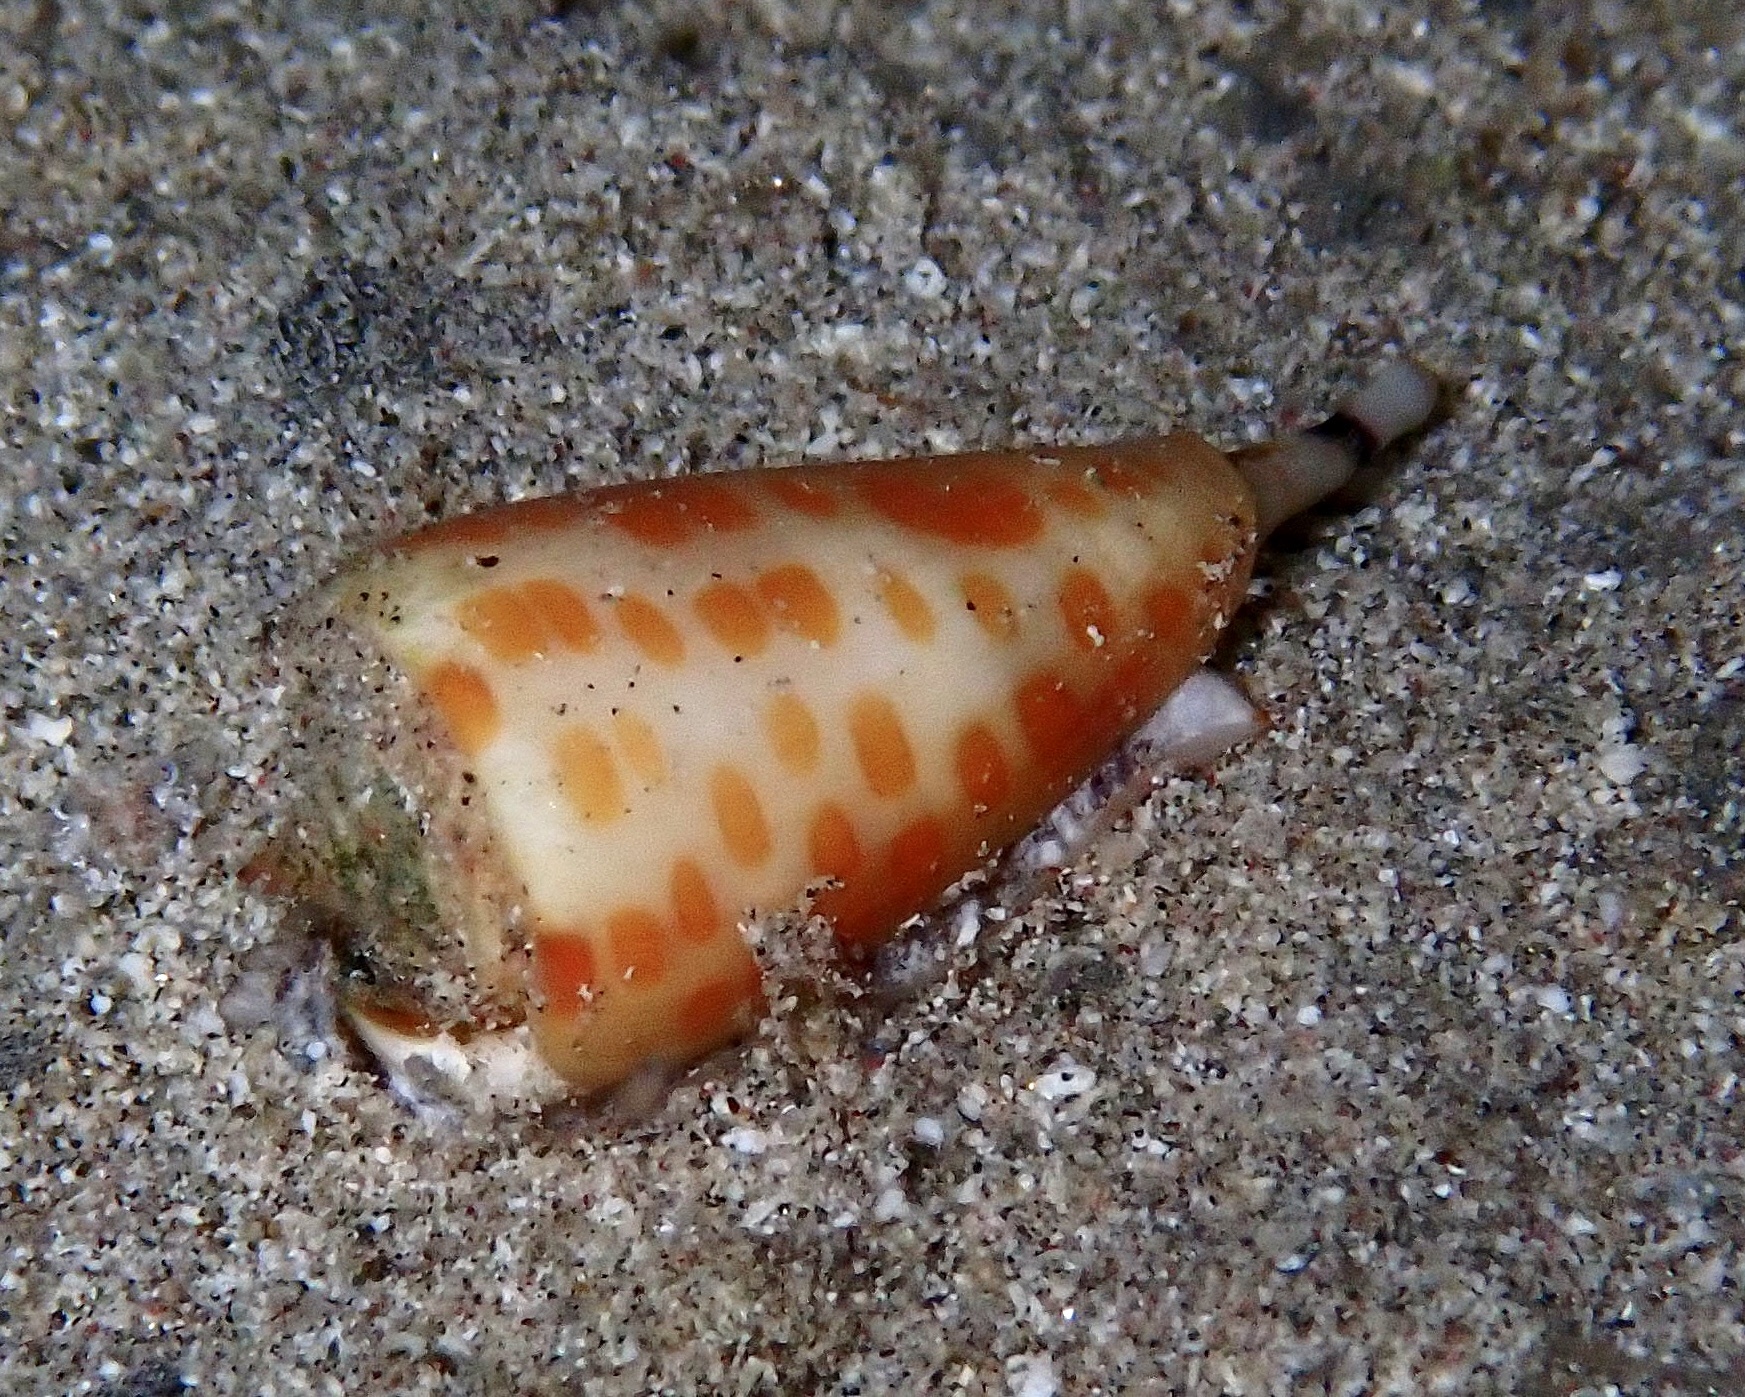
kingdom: Animalia
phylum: Mollusca
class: Gastropoda
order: Neogastropoda
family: Conidae
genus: Conus
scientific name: Conus tessulatus
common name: Tessellate cone
